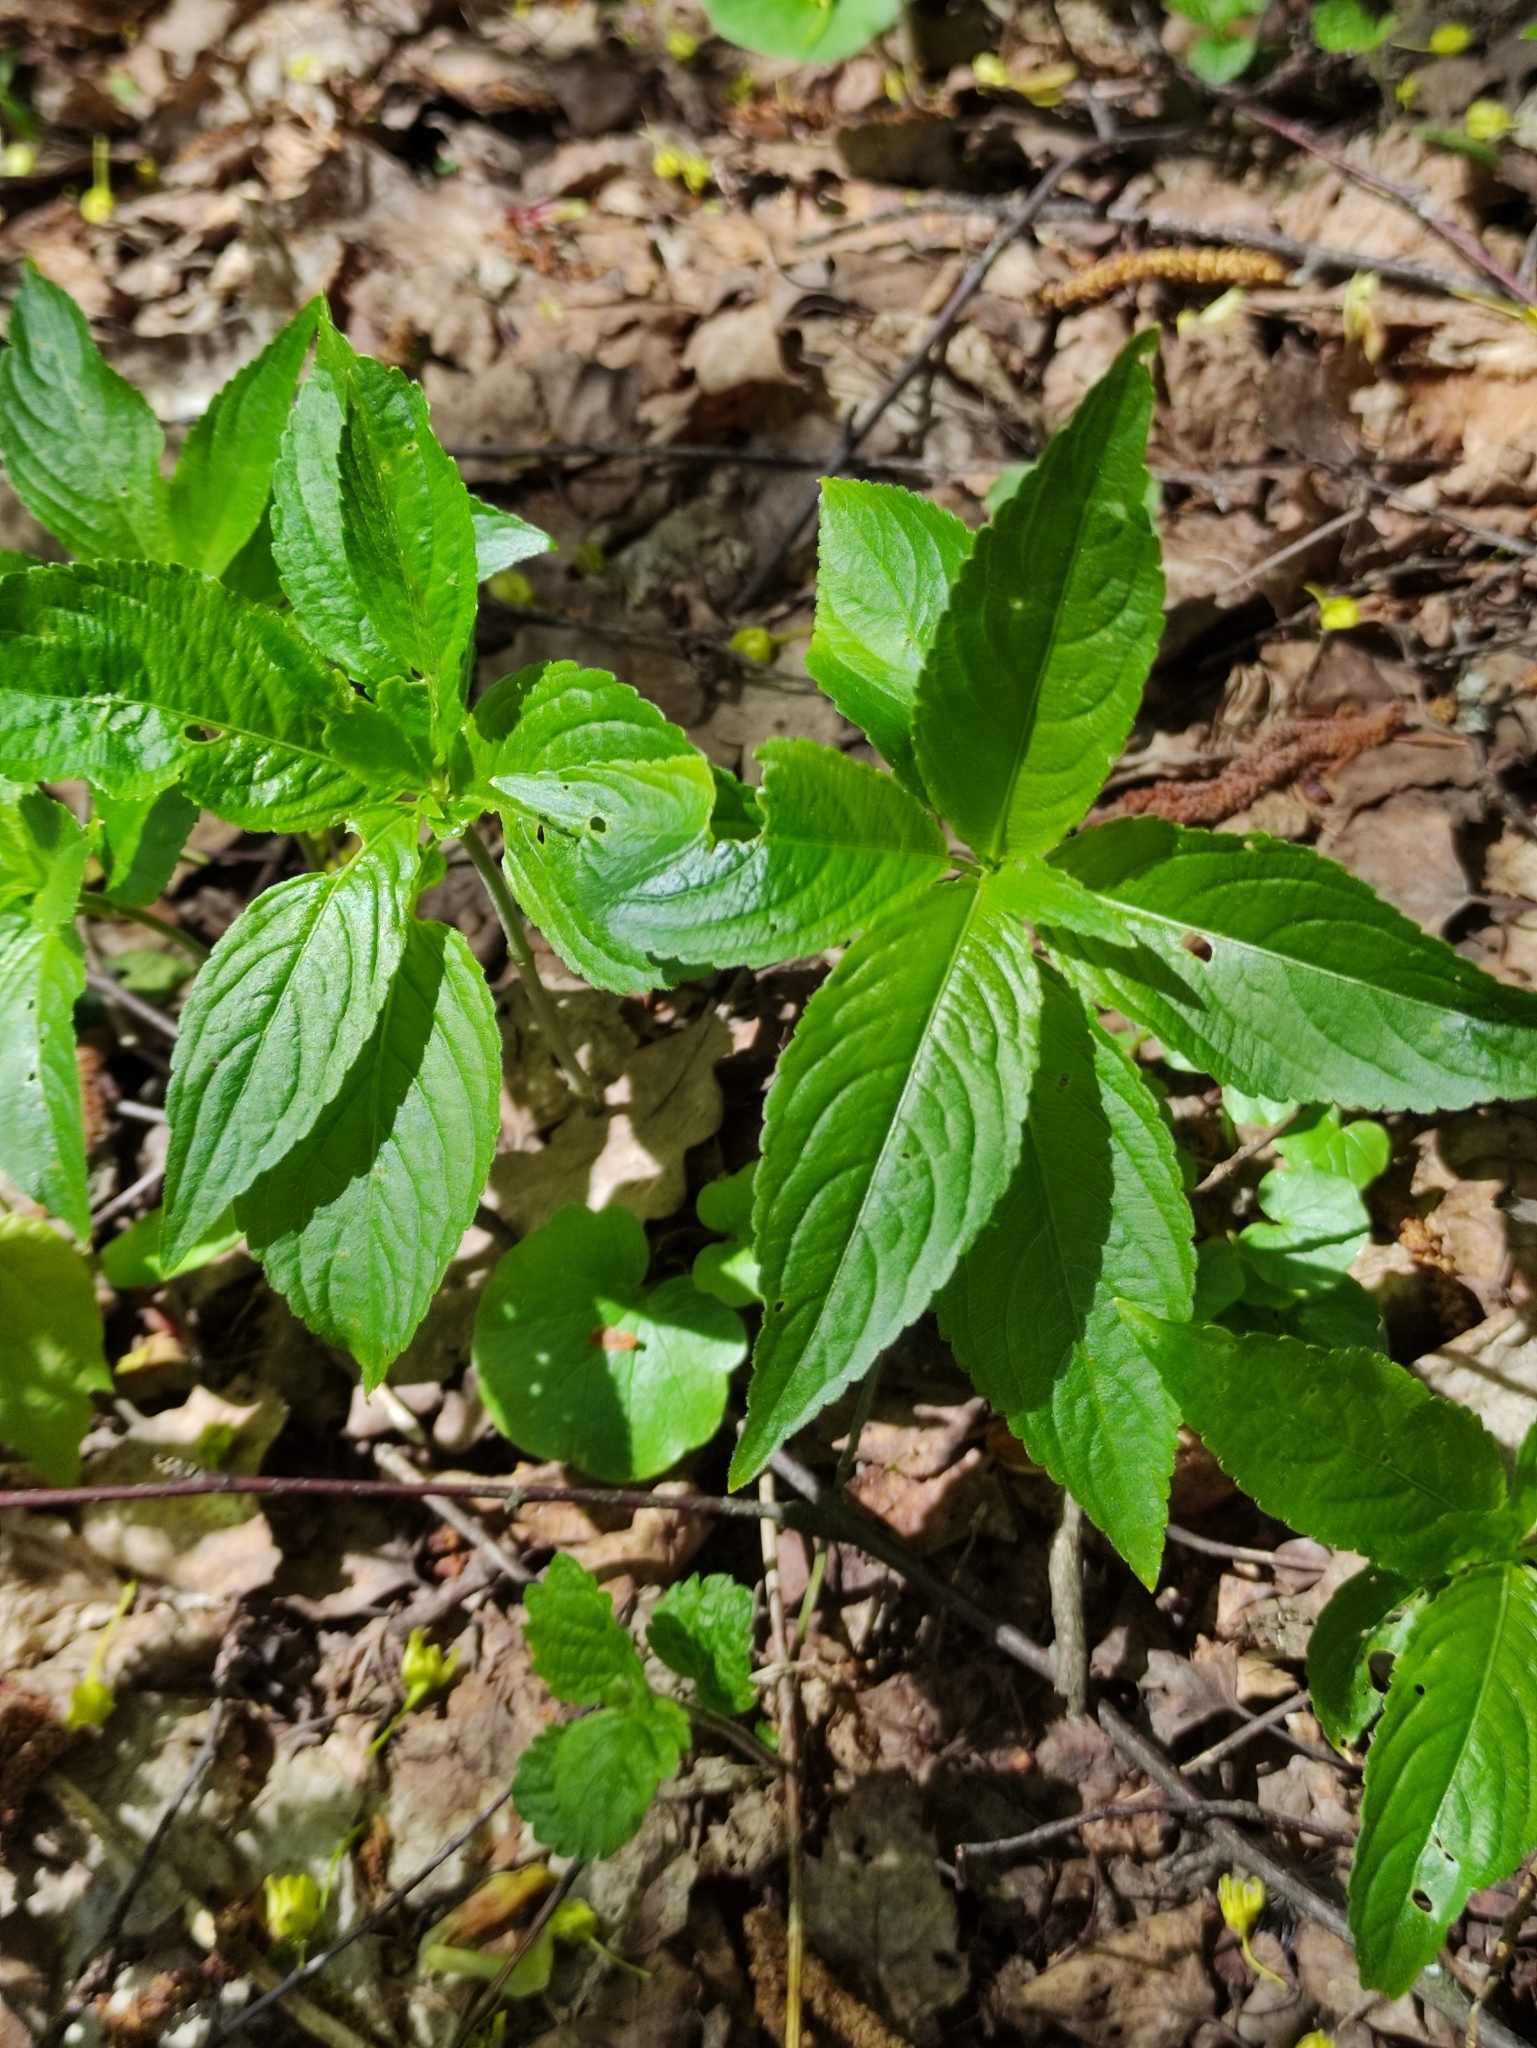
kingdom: Plantae
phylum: Tracheophyta
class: Magnoliopsida
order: Malpighiales
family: Euphorbiaceae
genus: Mercurialis
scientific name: Mercurialis perennis
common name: Dog mercury
